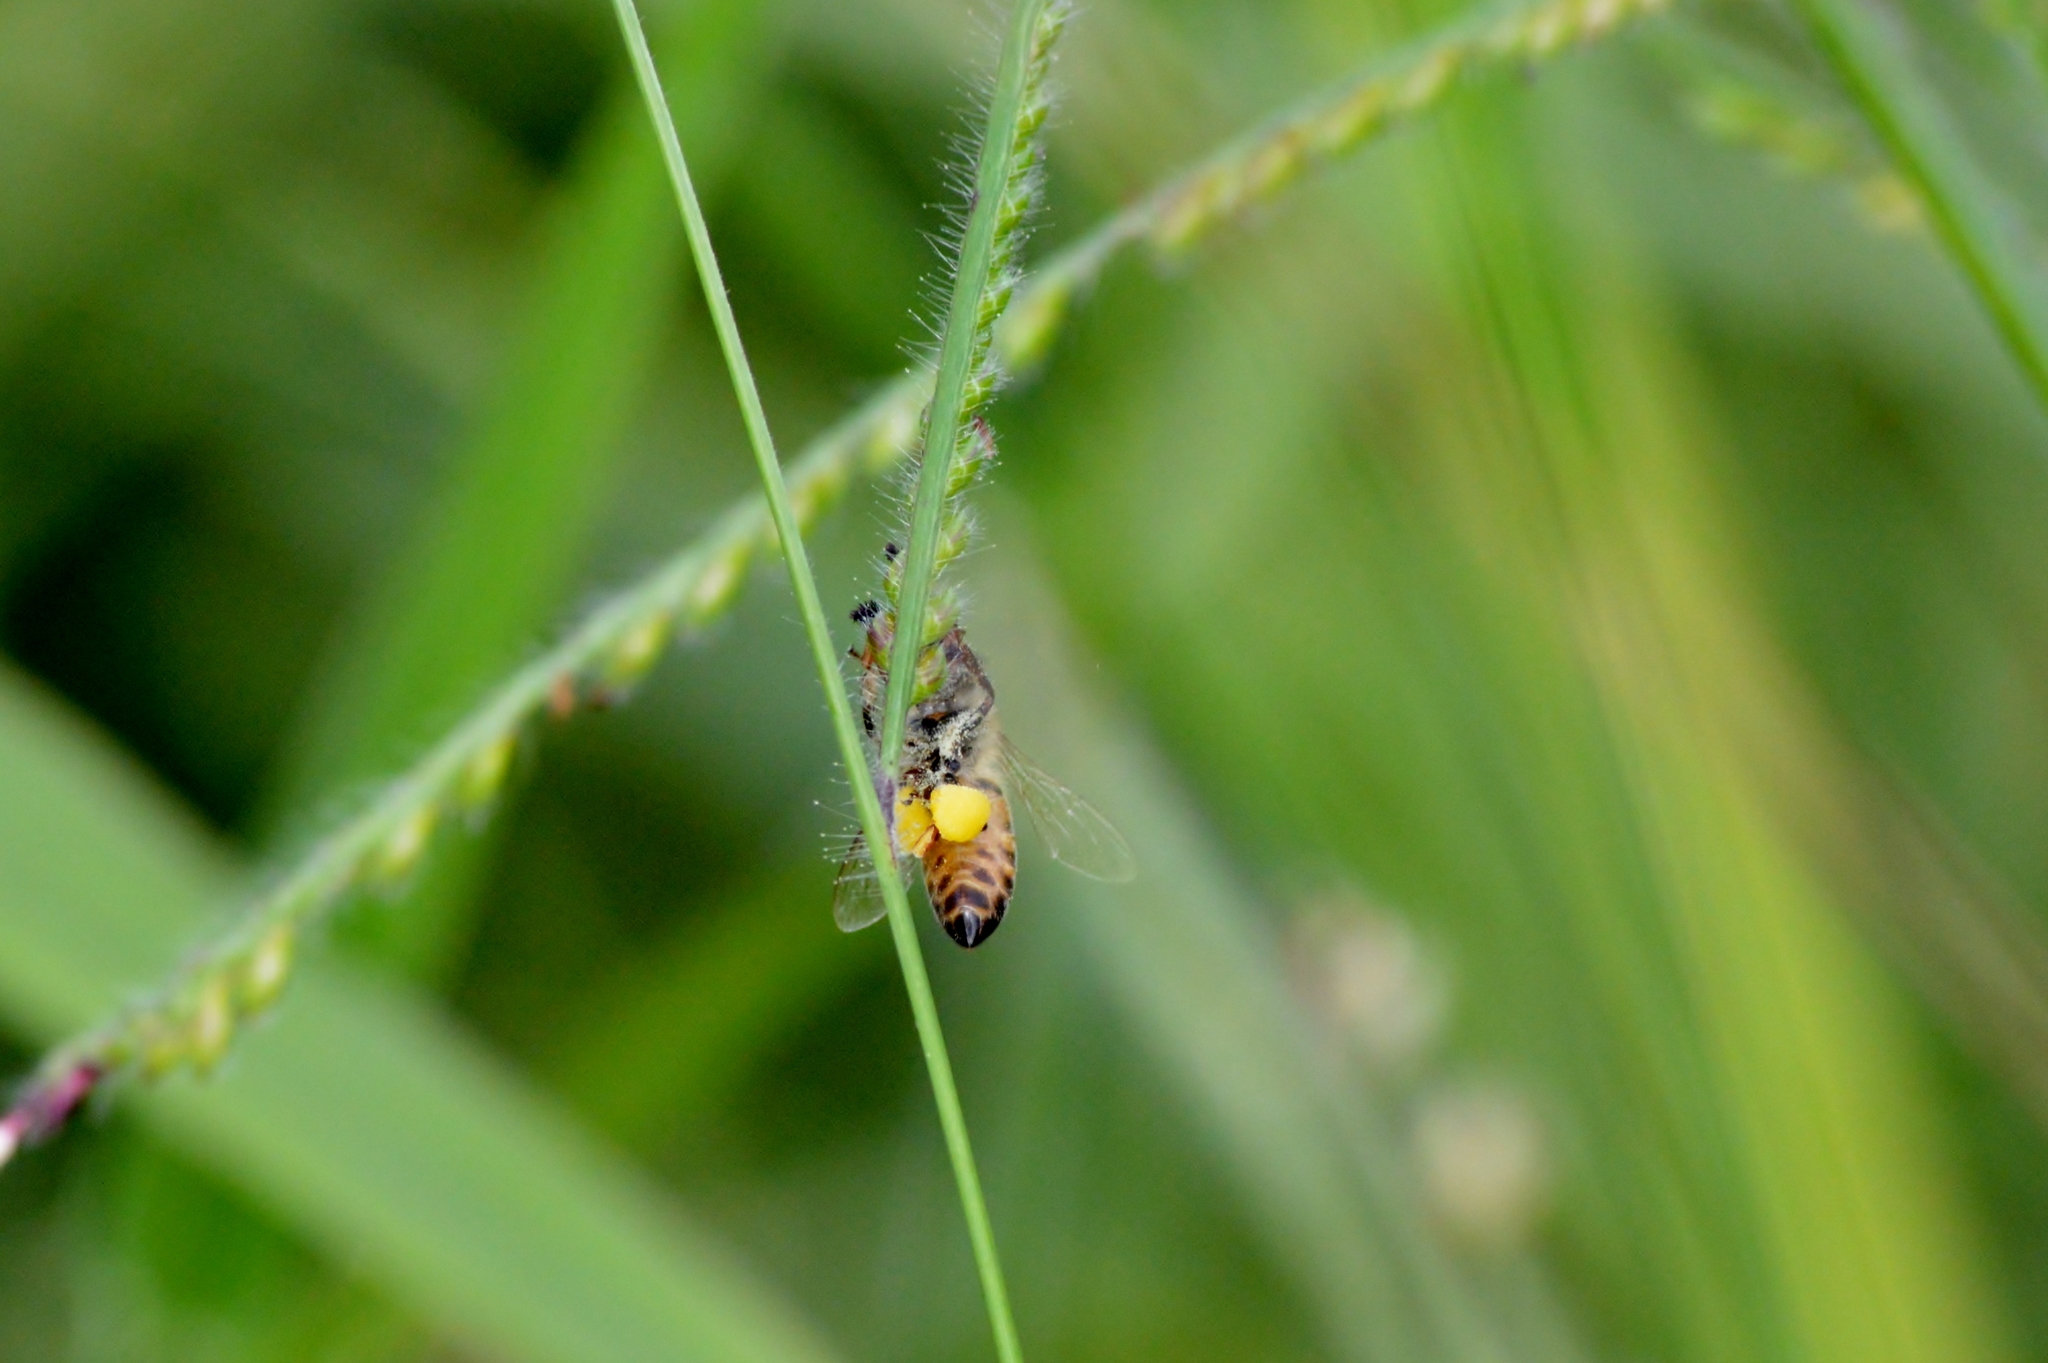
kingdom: Animalia
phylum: Arthropoda
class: Insecta
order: Hymenoptera
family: Apidae
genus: Apis
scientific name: Apis mellifera
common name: Honey bee
